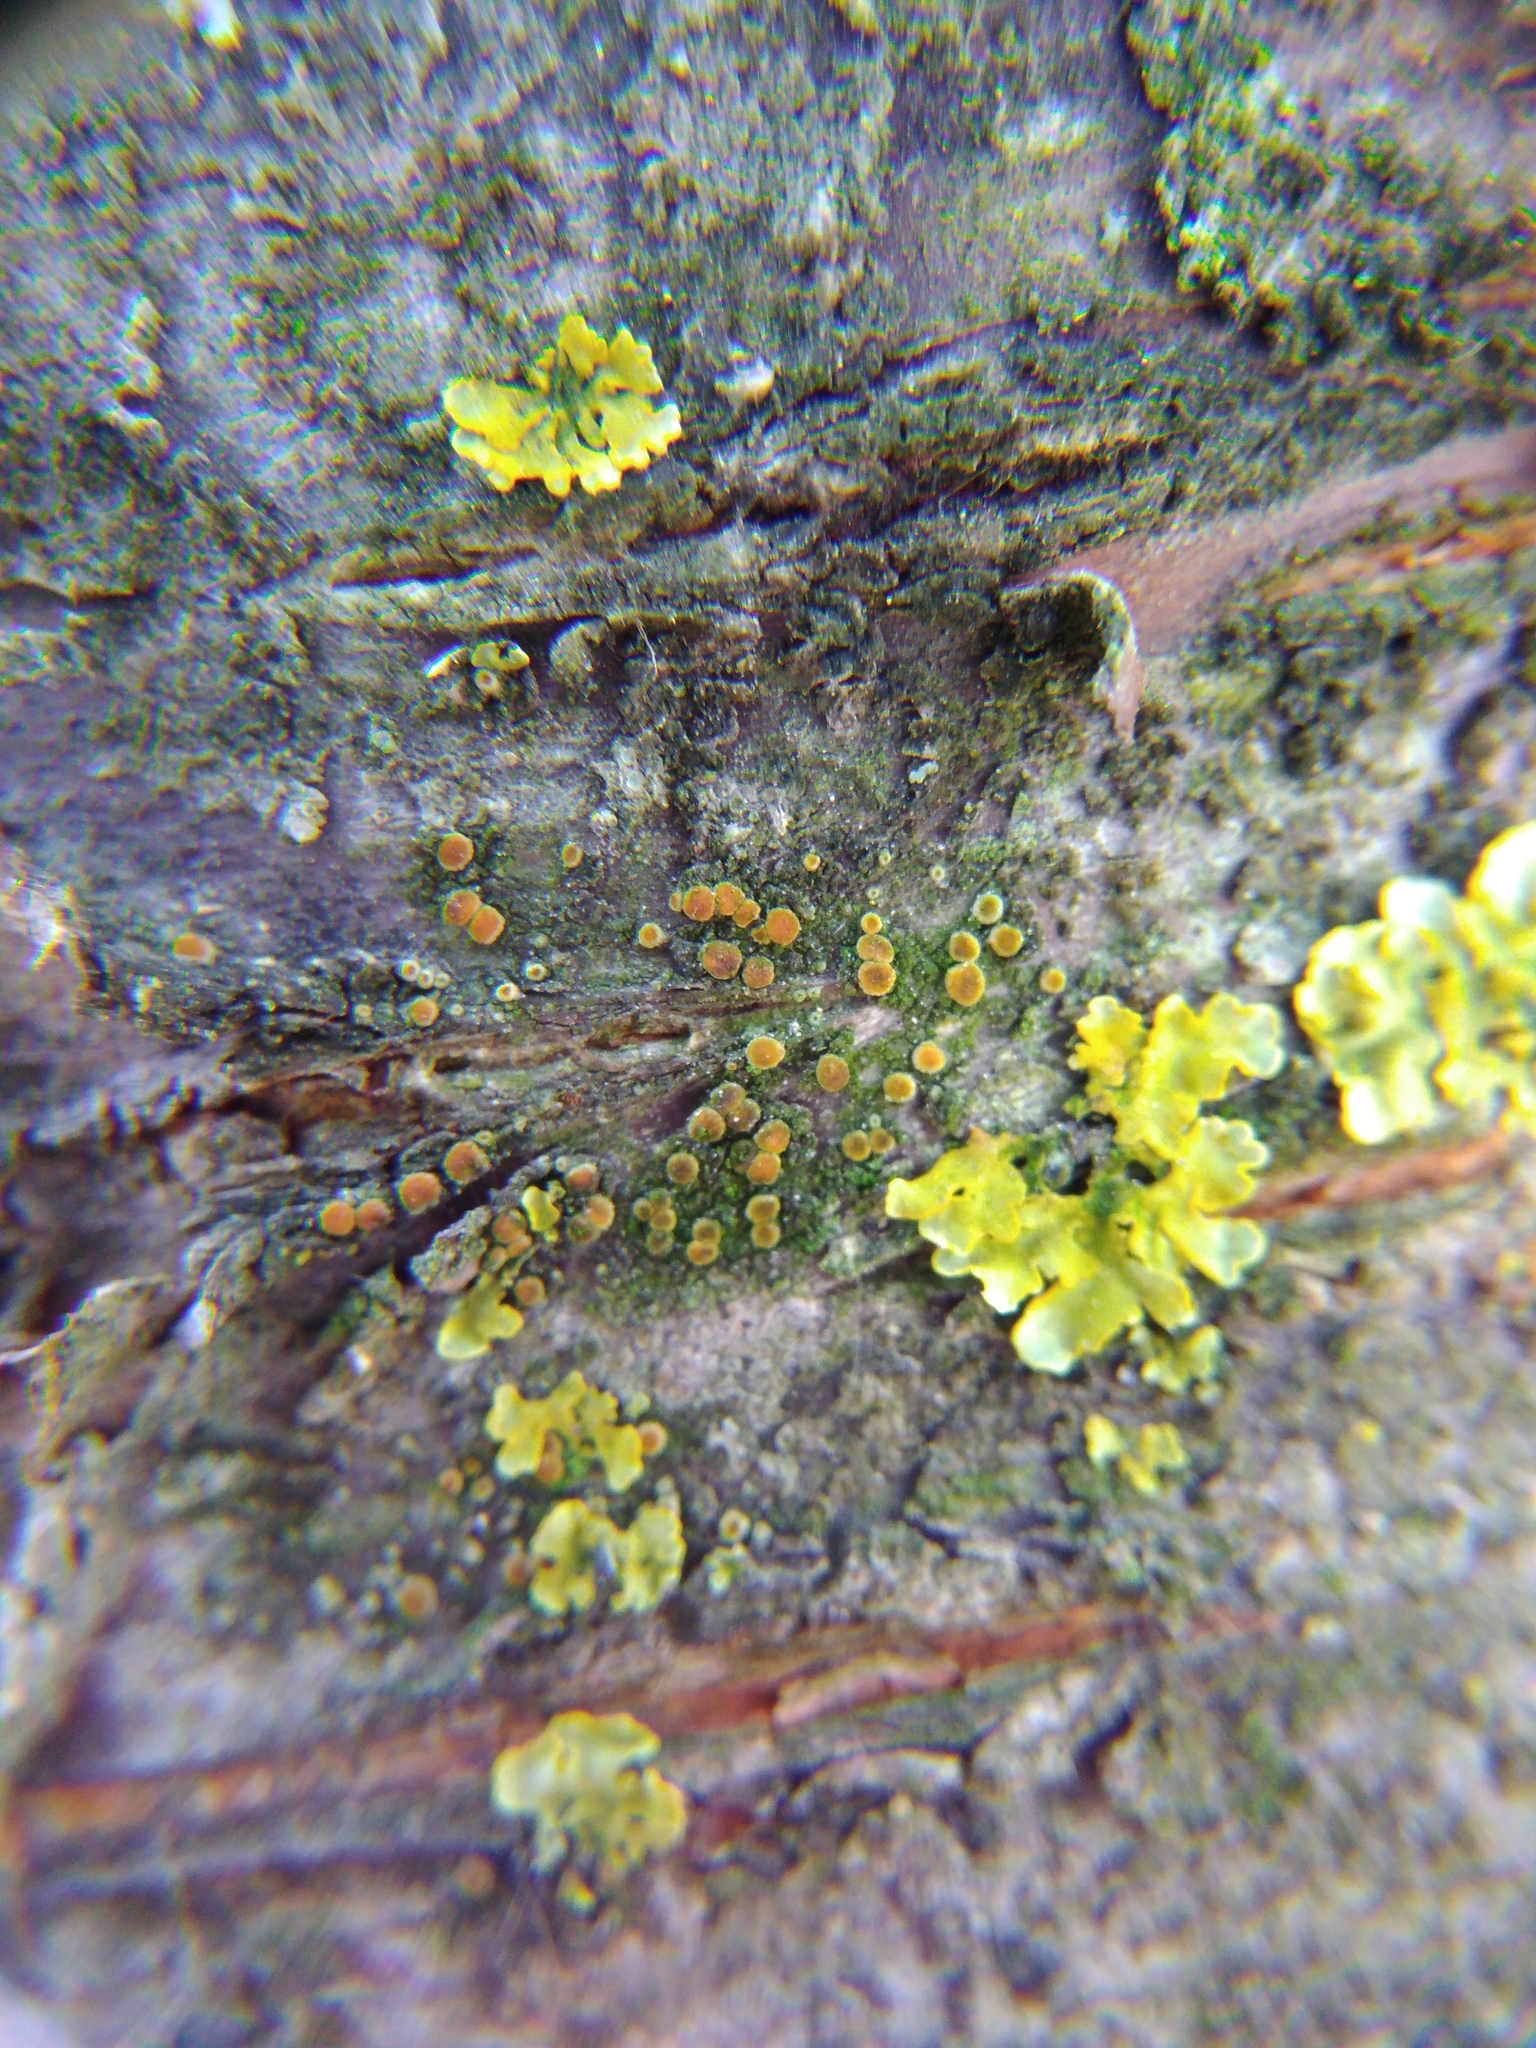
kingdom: Fungi
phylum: Ascomycota
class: Lecanoromycetes
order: Teloschistales
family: Teloschistaceae
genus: Athallia
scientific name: Athallia pyracea
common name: Flaming firedot lichen
